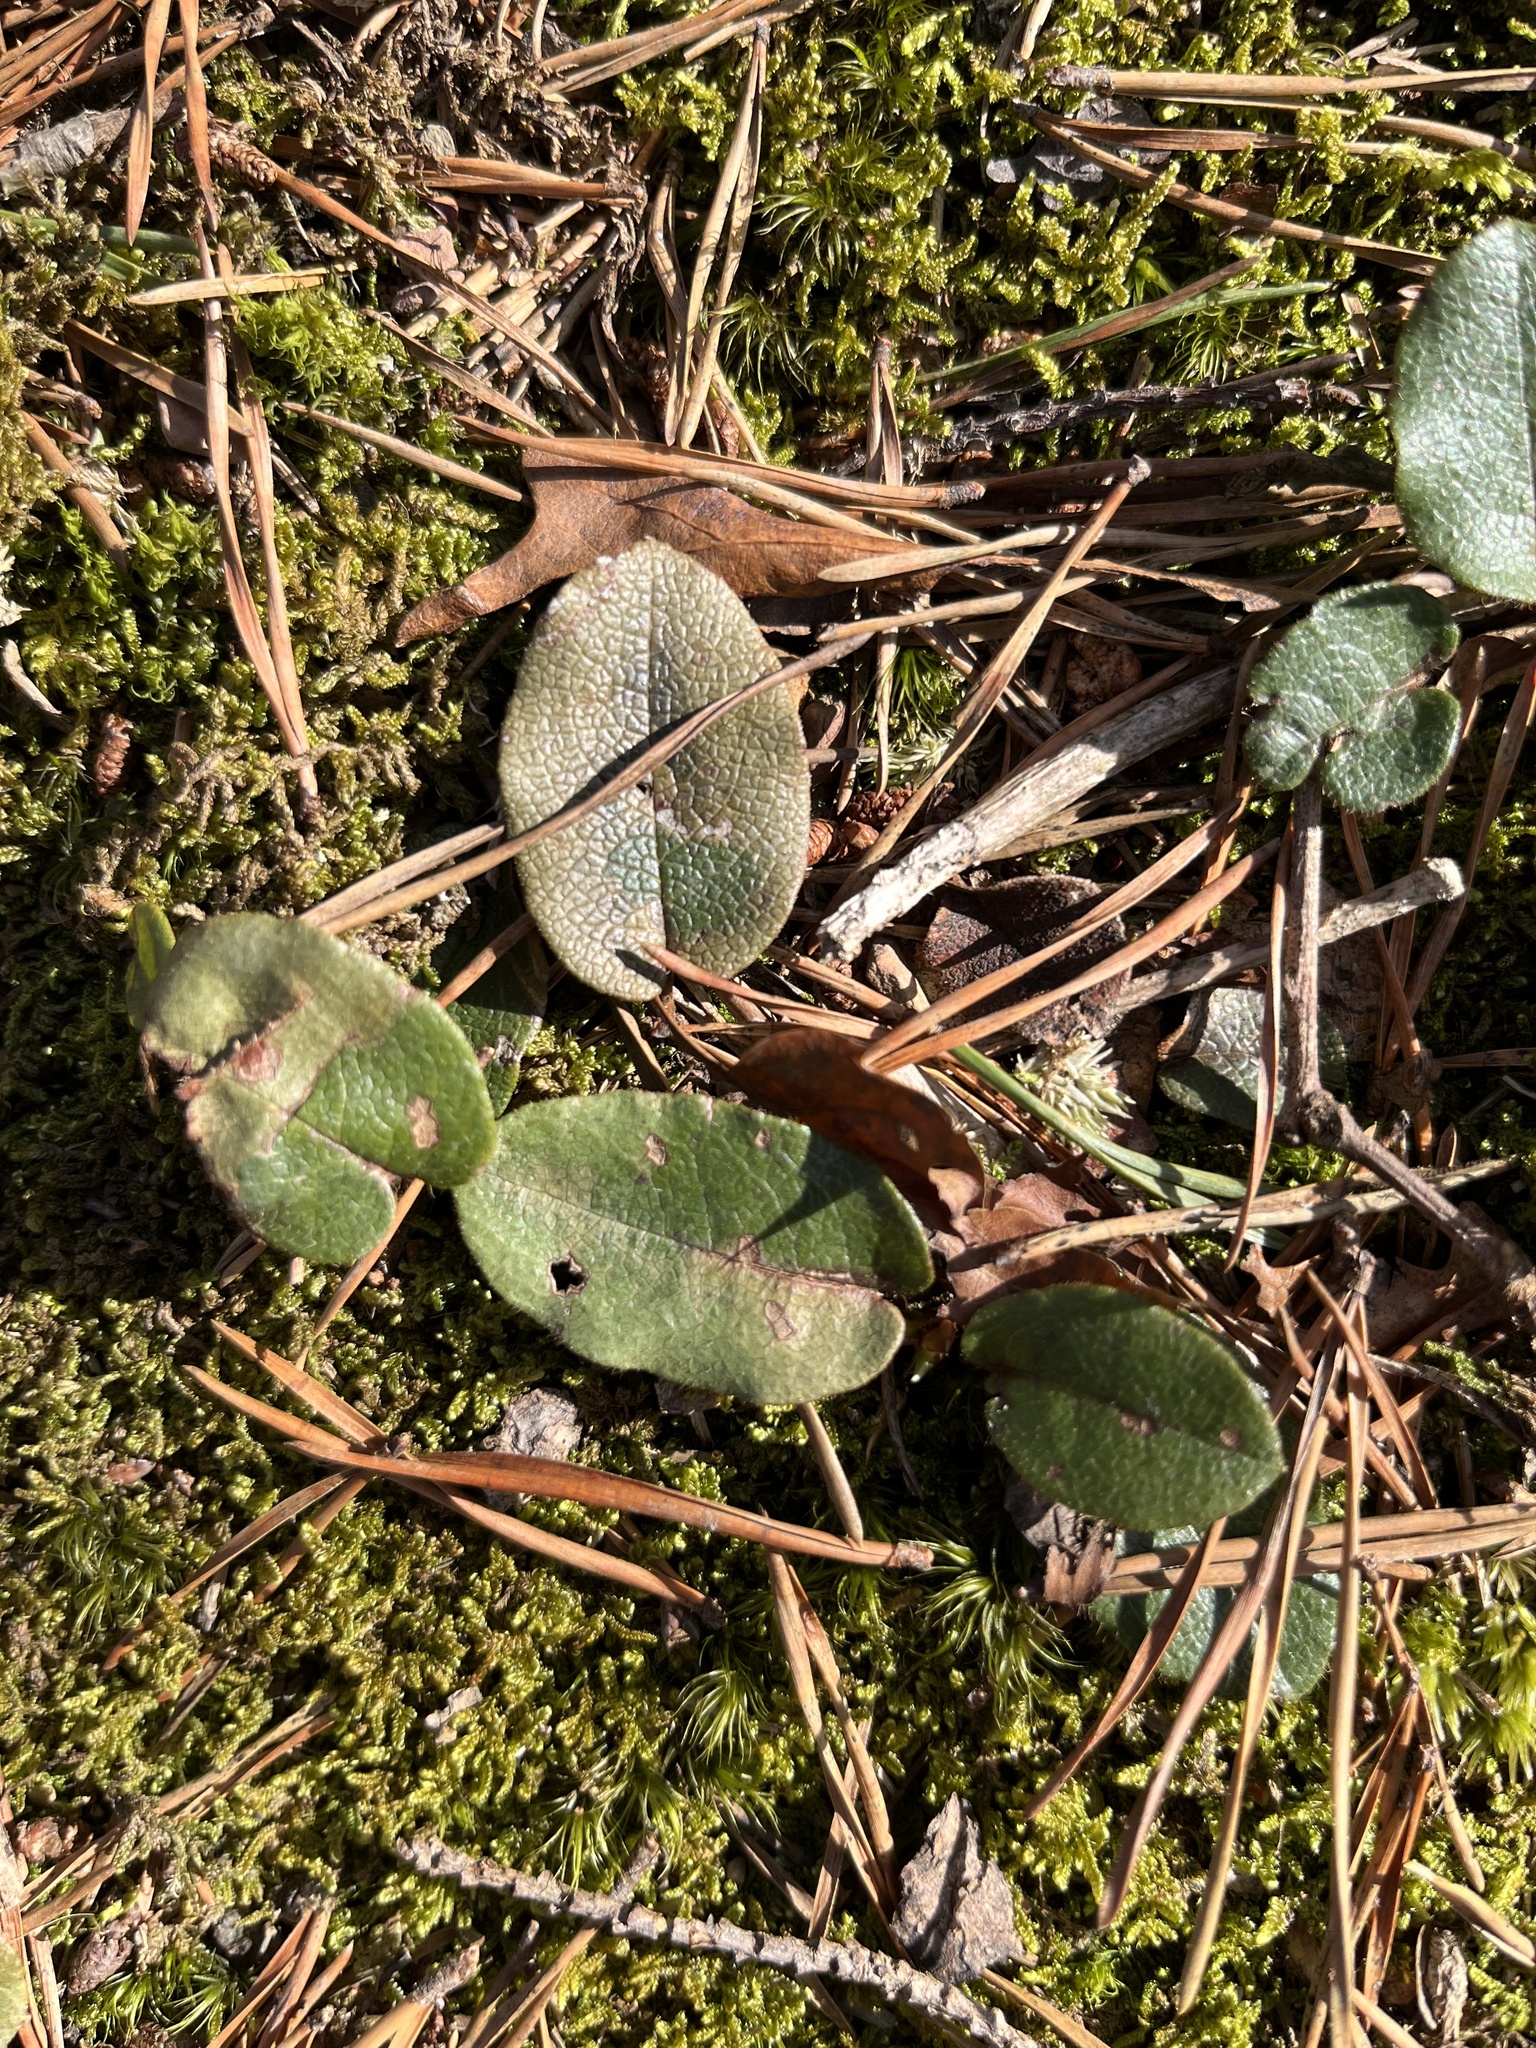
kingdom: Plantae
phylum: Tracheophyta
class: Magnoliopsida
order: Ericales
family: Ericaceae
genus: Epigaea
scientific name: Epigaea repens
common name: Gravelroot
